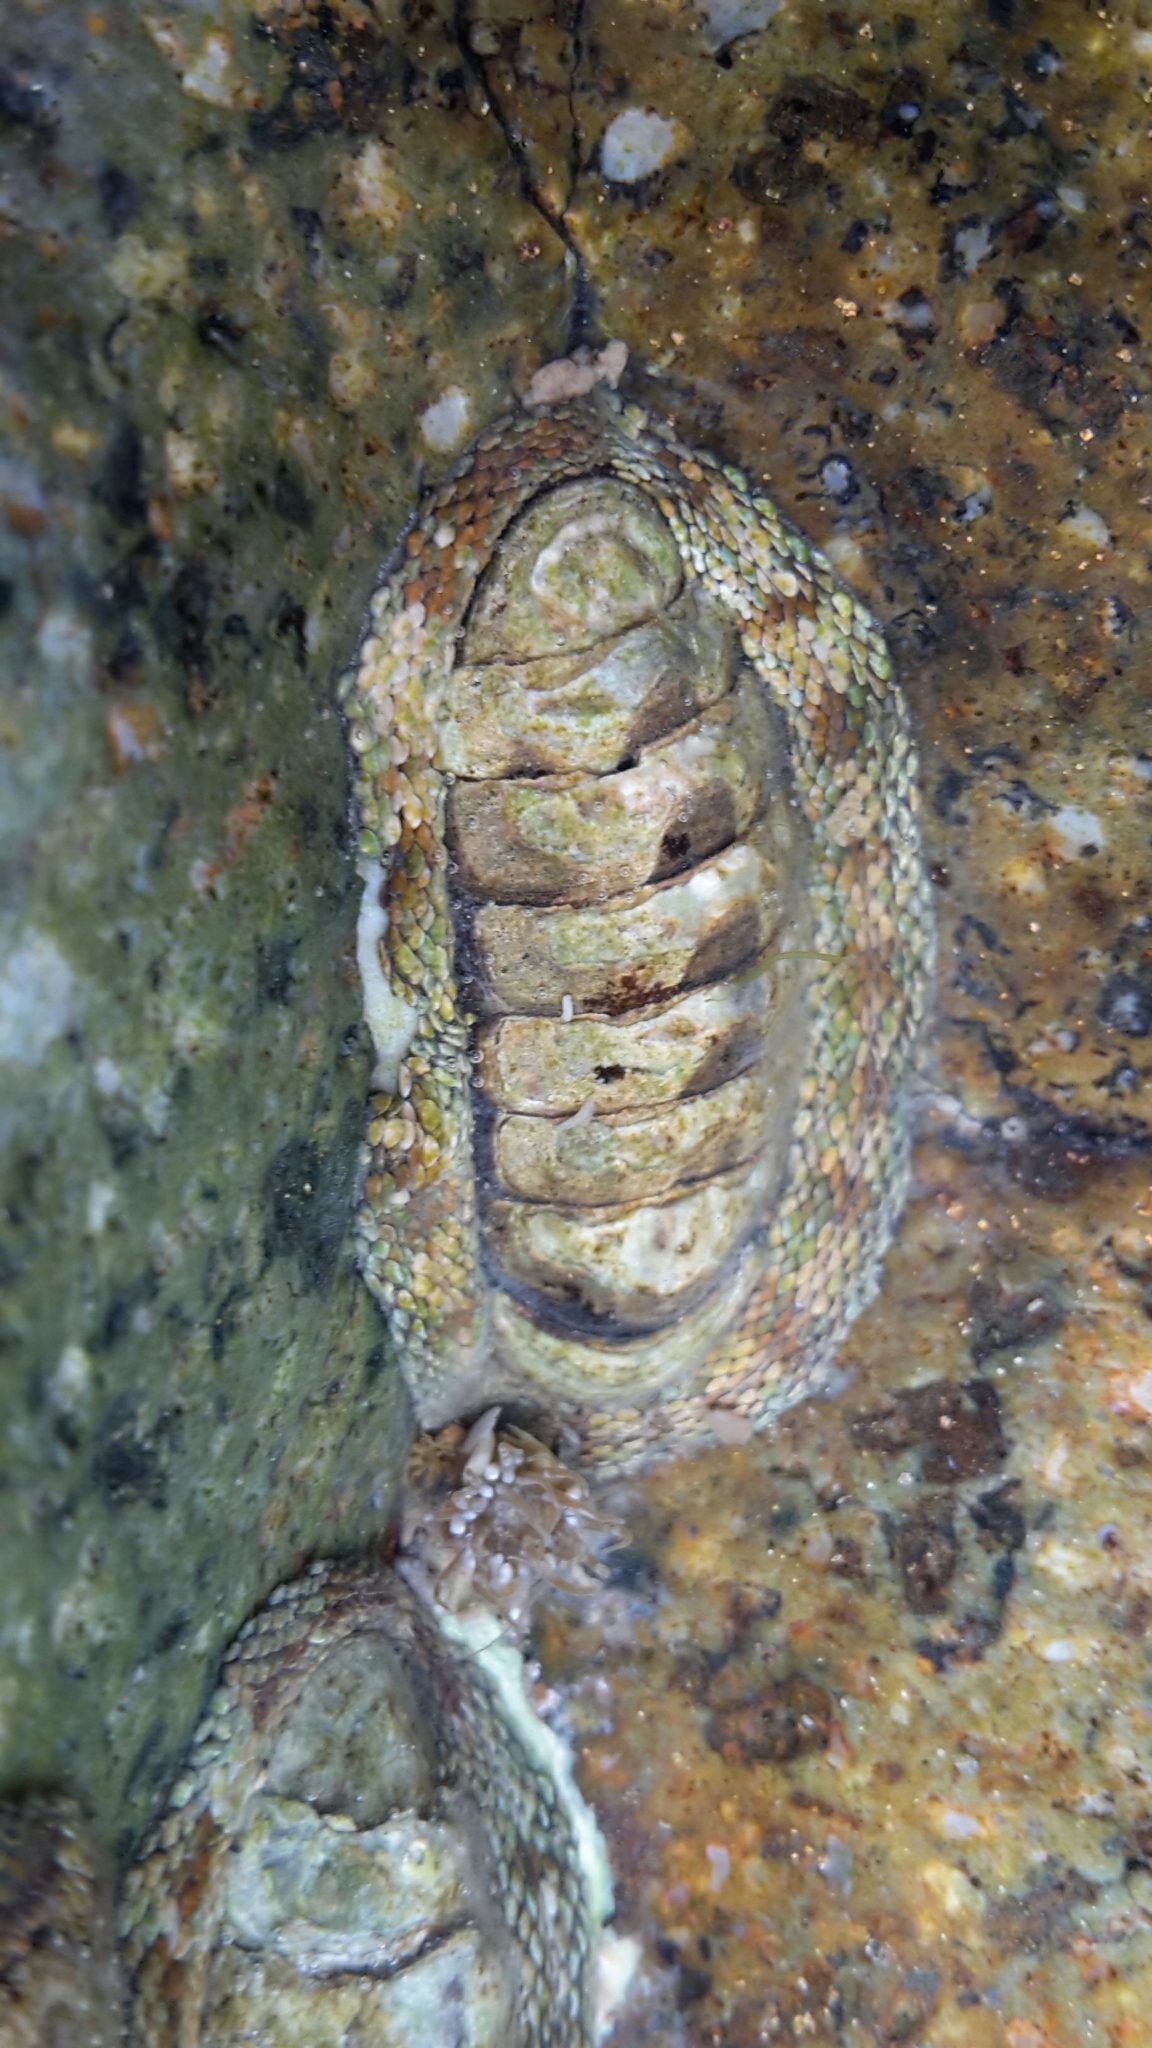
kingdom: Animalia
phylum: Mollusca
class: Polyplacophora
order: Chitonida
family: Chitonidae
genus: Sypharochiton
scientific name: Sypharochiton pelliserpentis
